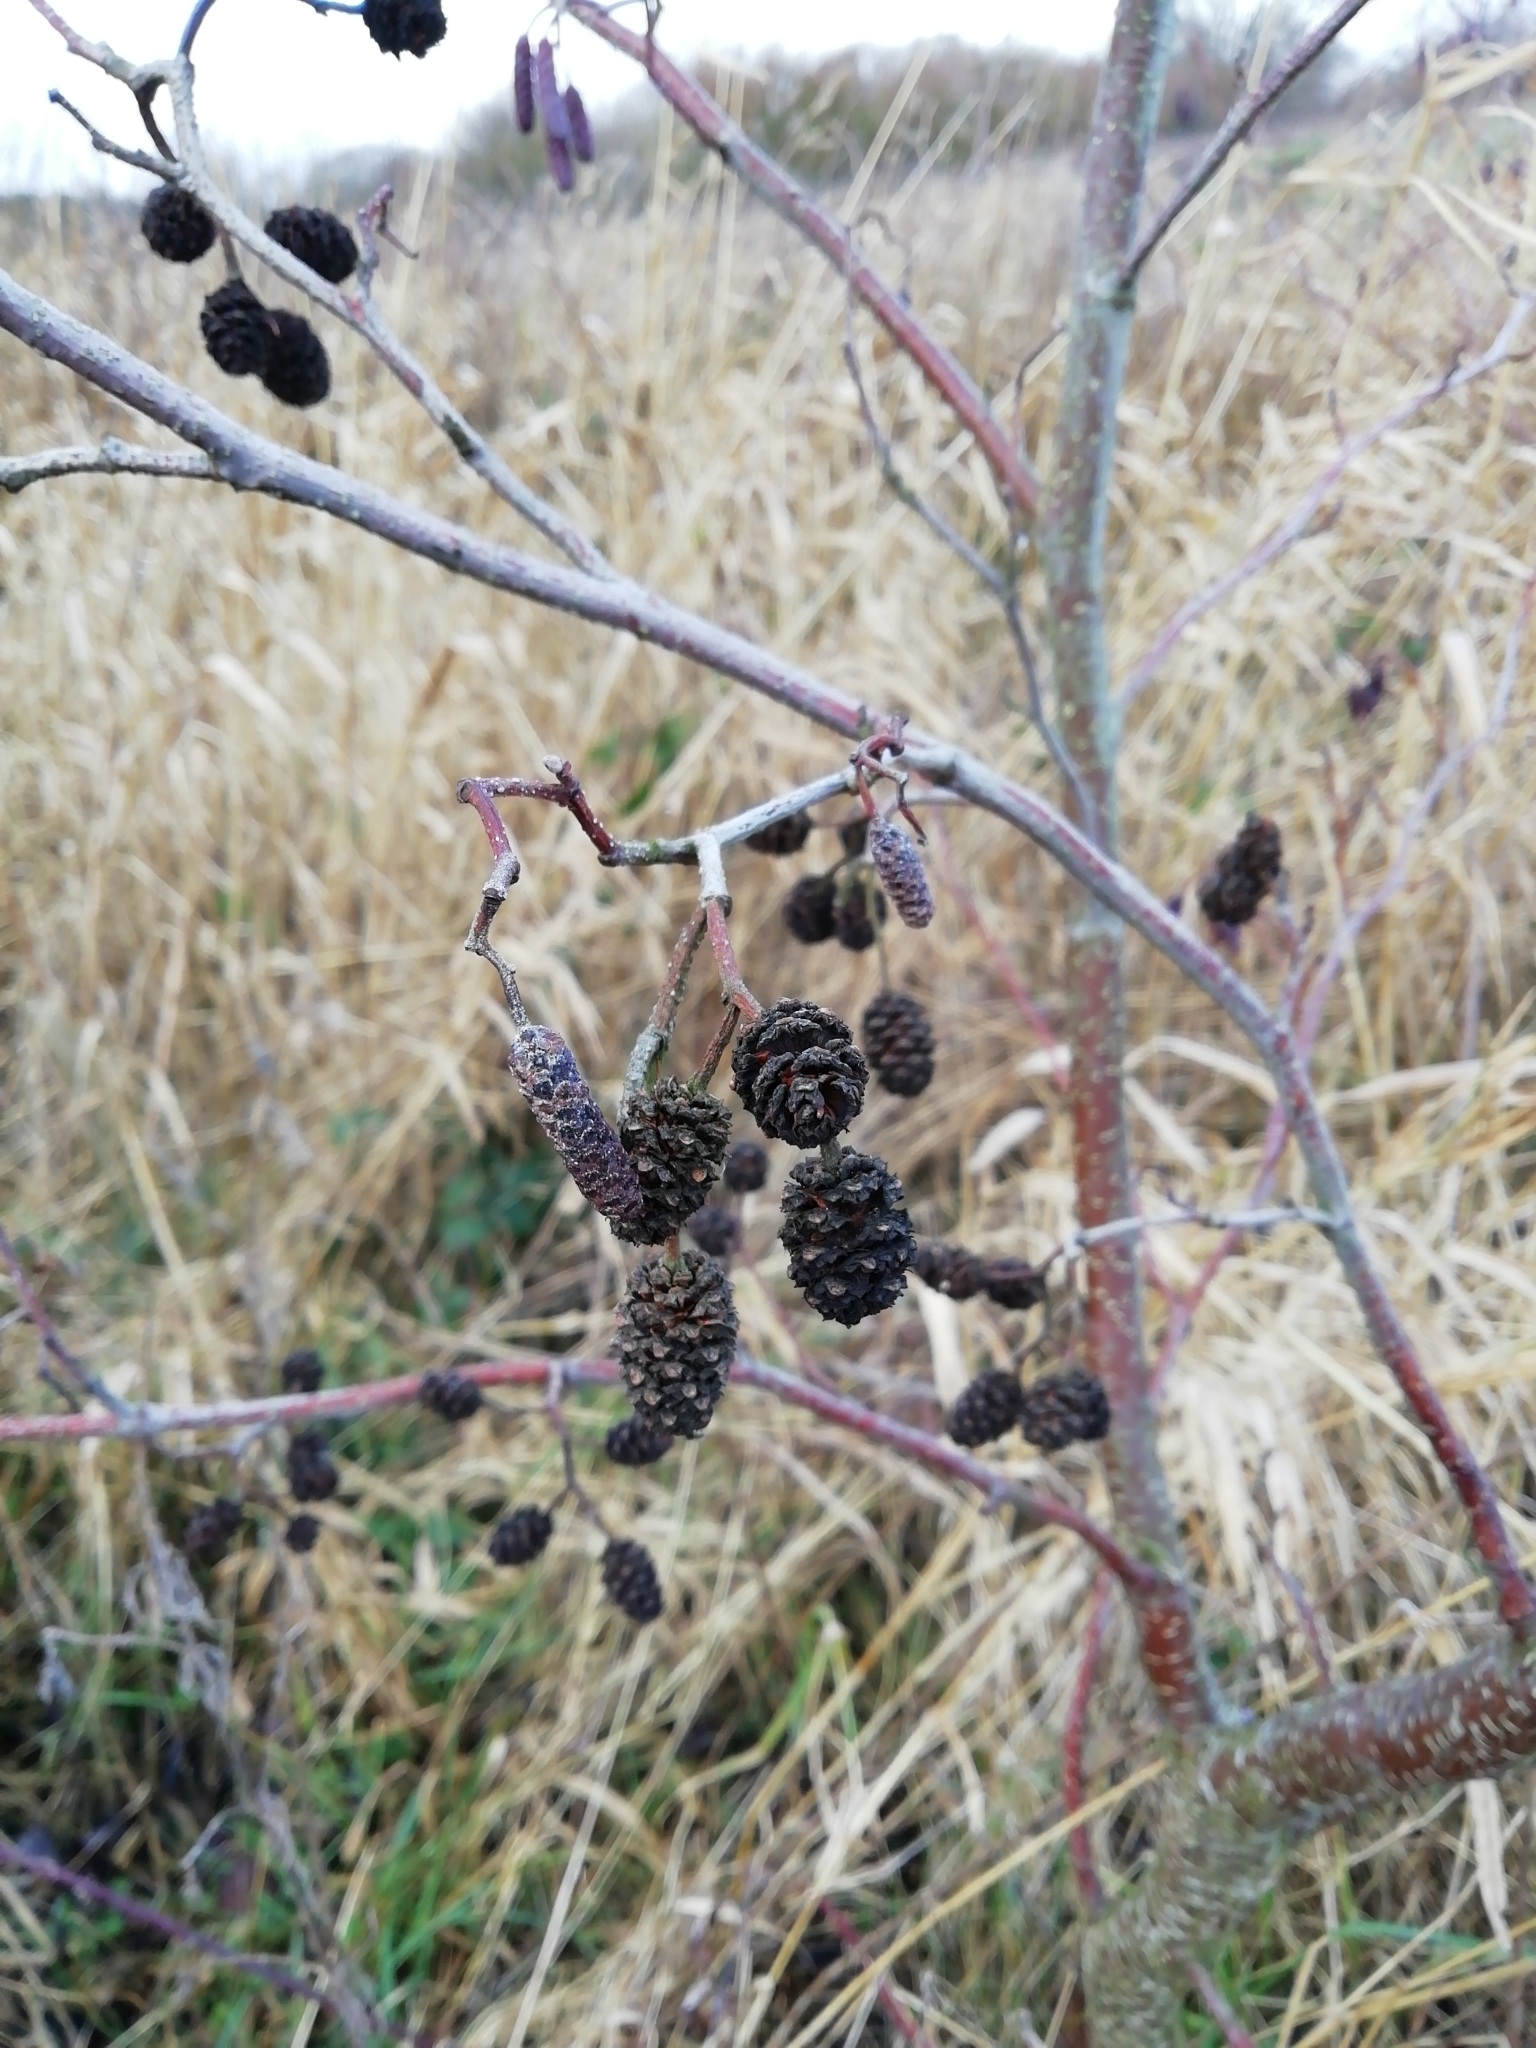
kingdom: Plantae
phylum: Tracheophyta
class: Magnoliopsida
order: Fagales
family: Betulaceae
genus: Alnus
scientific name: Alnus glutinosa
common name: Black alder
